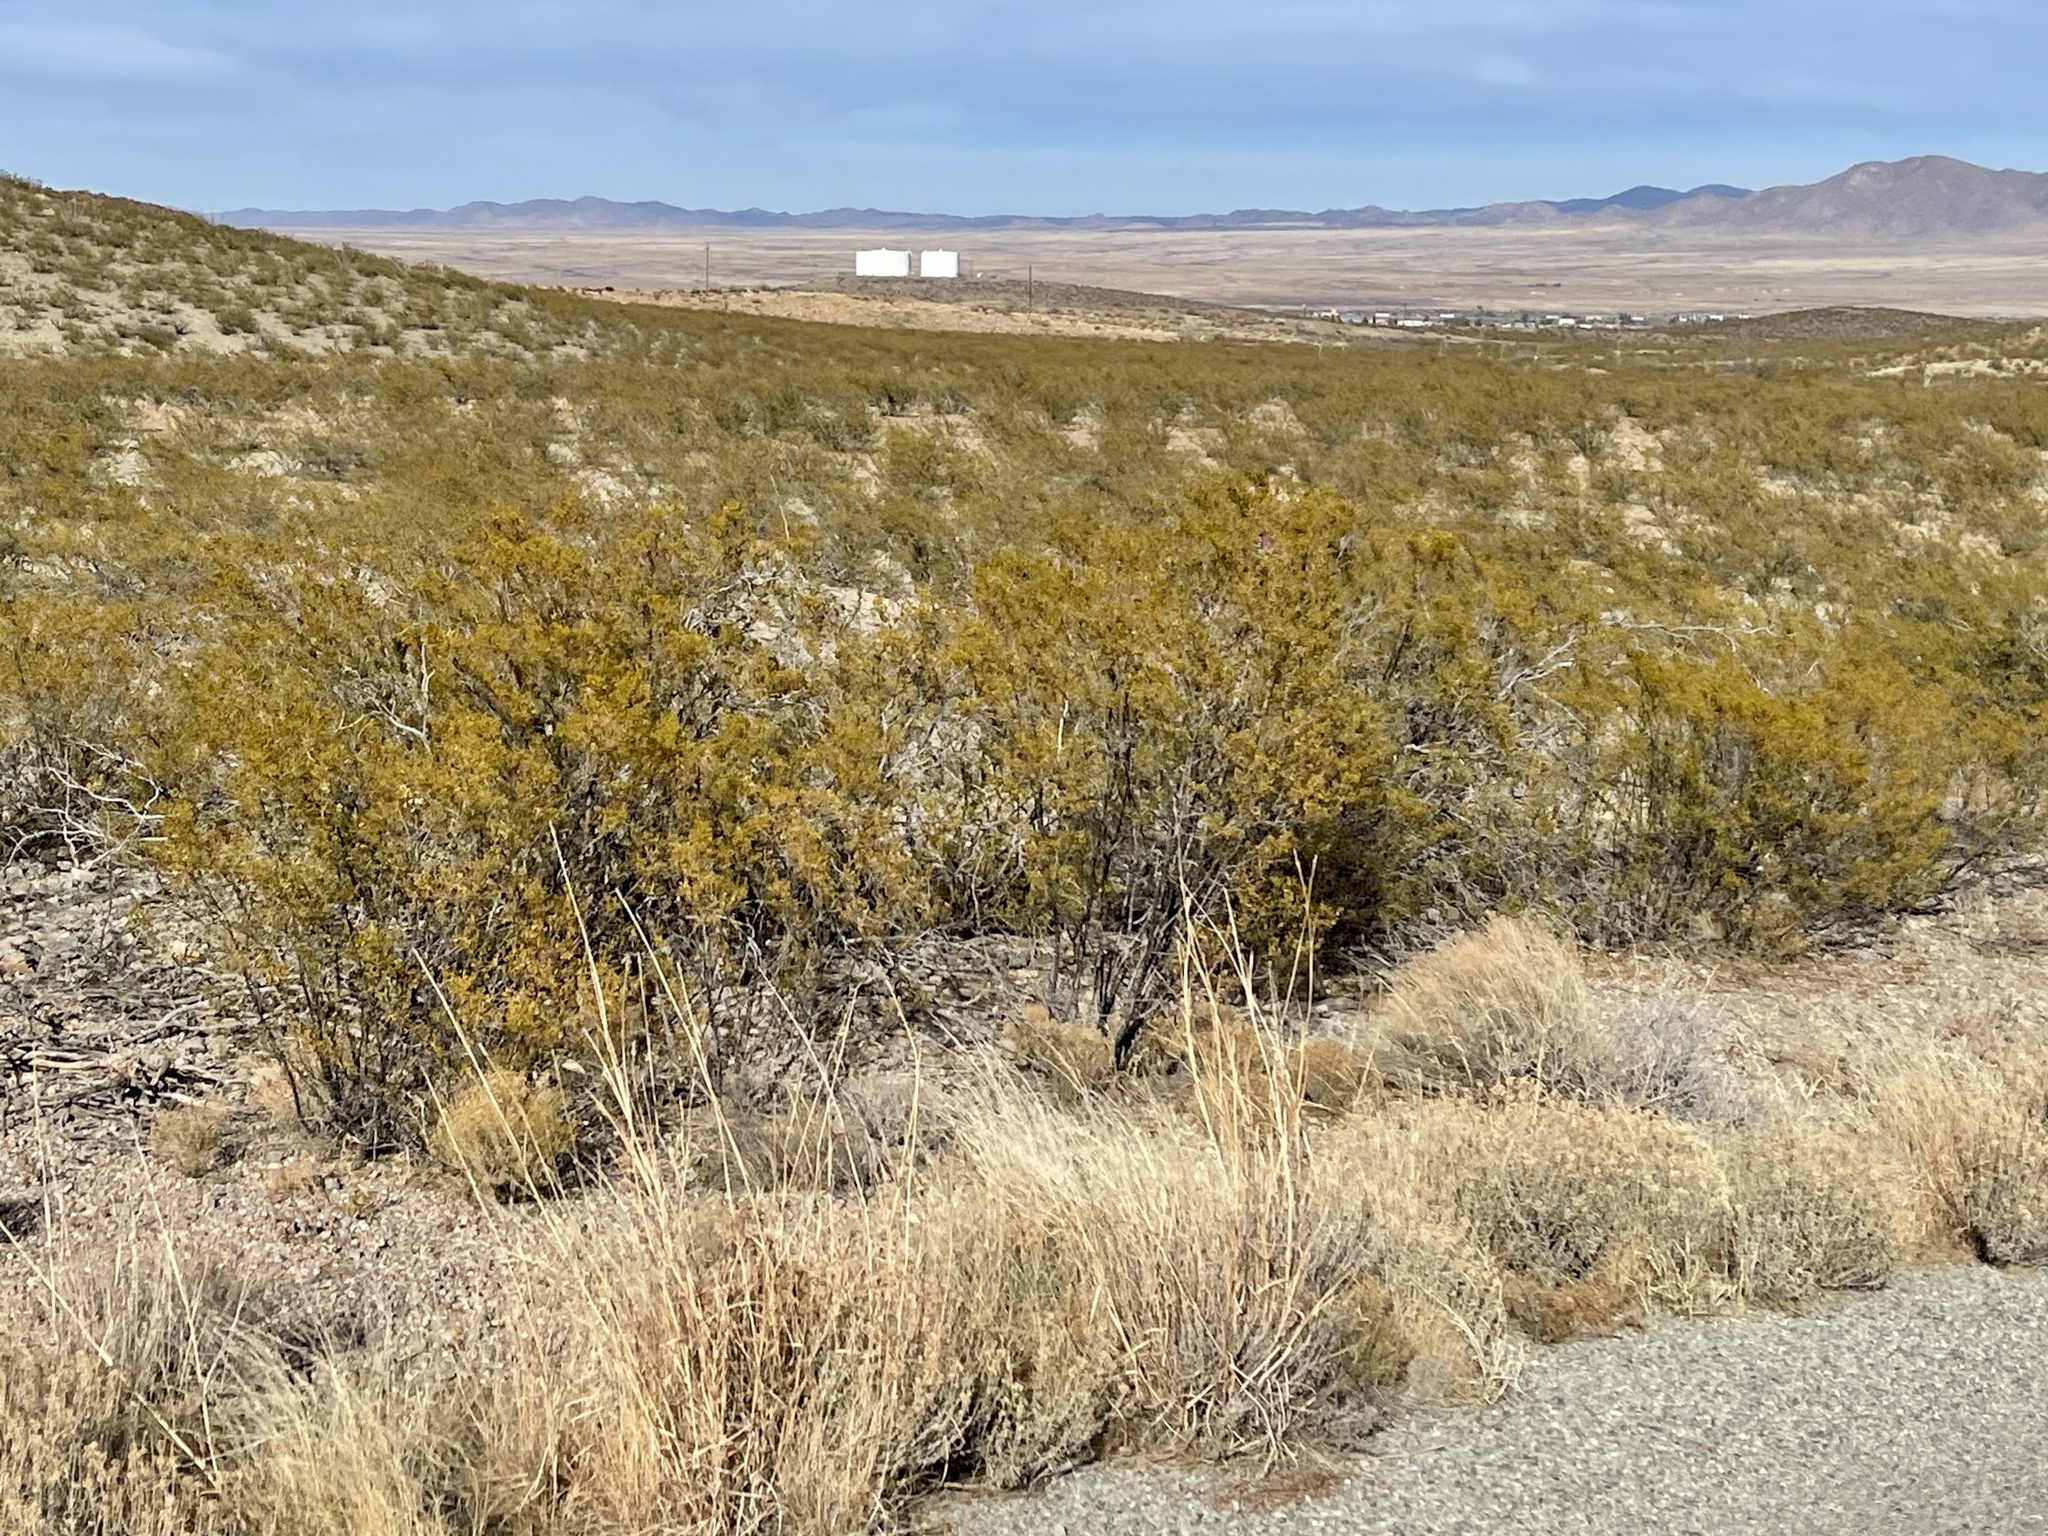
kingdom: Plantae
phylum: Tracheophyta
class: Magnoliopsida
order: Zygophyllales
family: Zygophyllaceae
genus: Larrea
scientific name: Larrea tridentata
